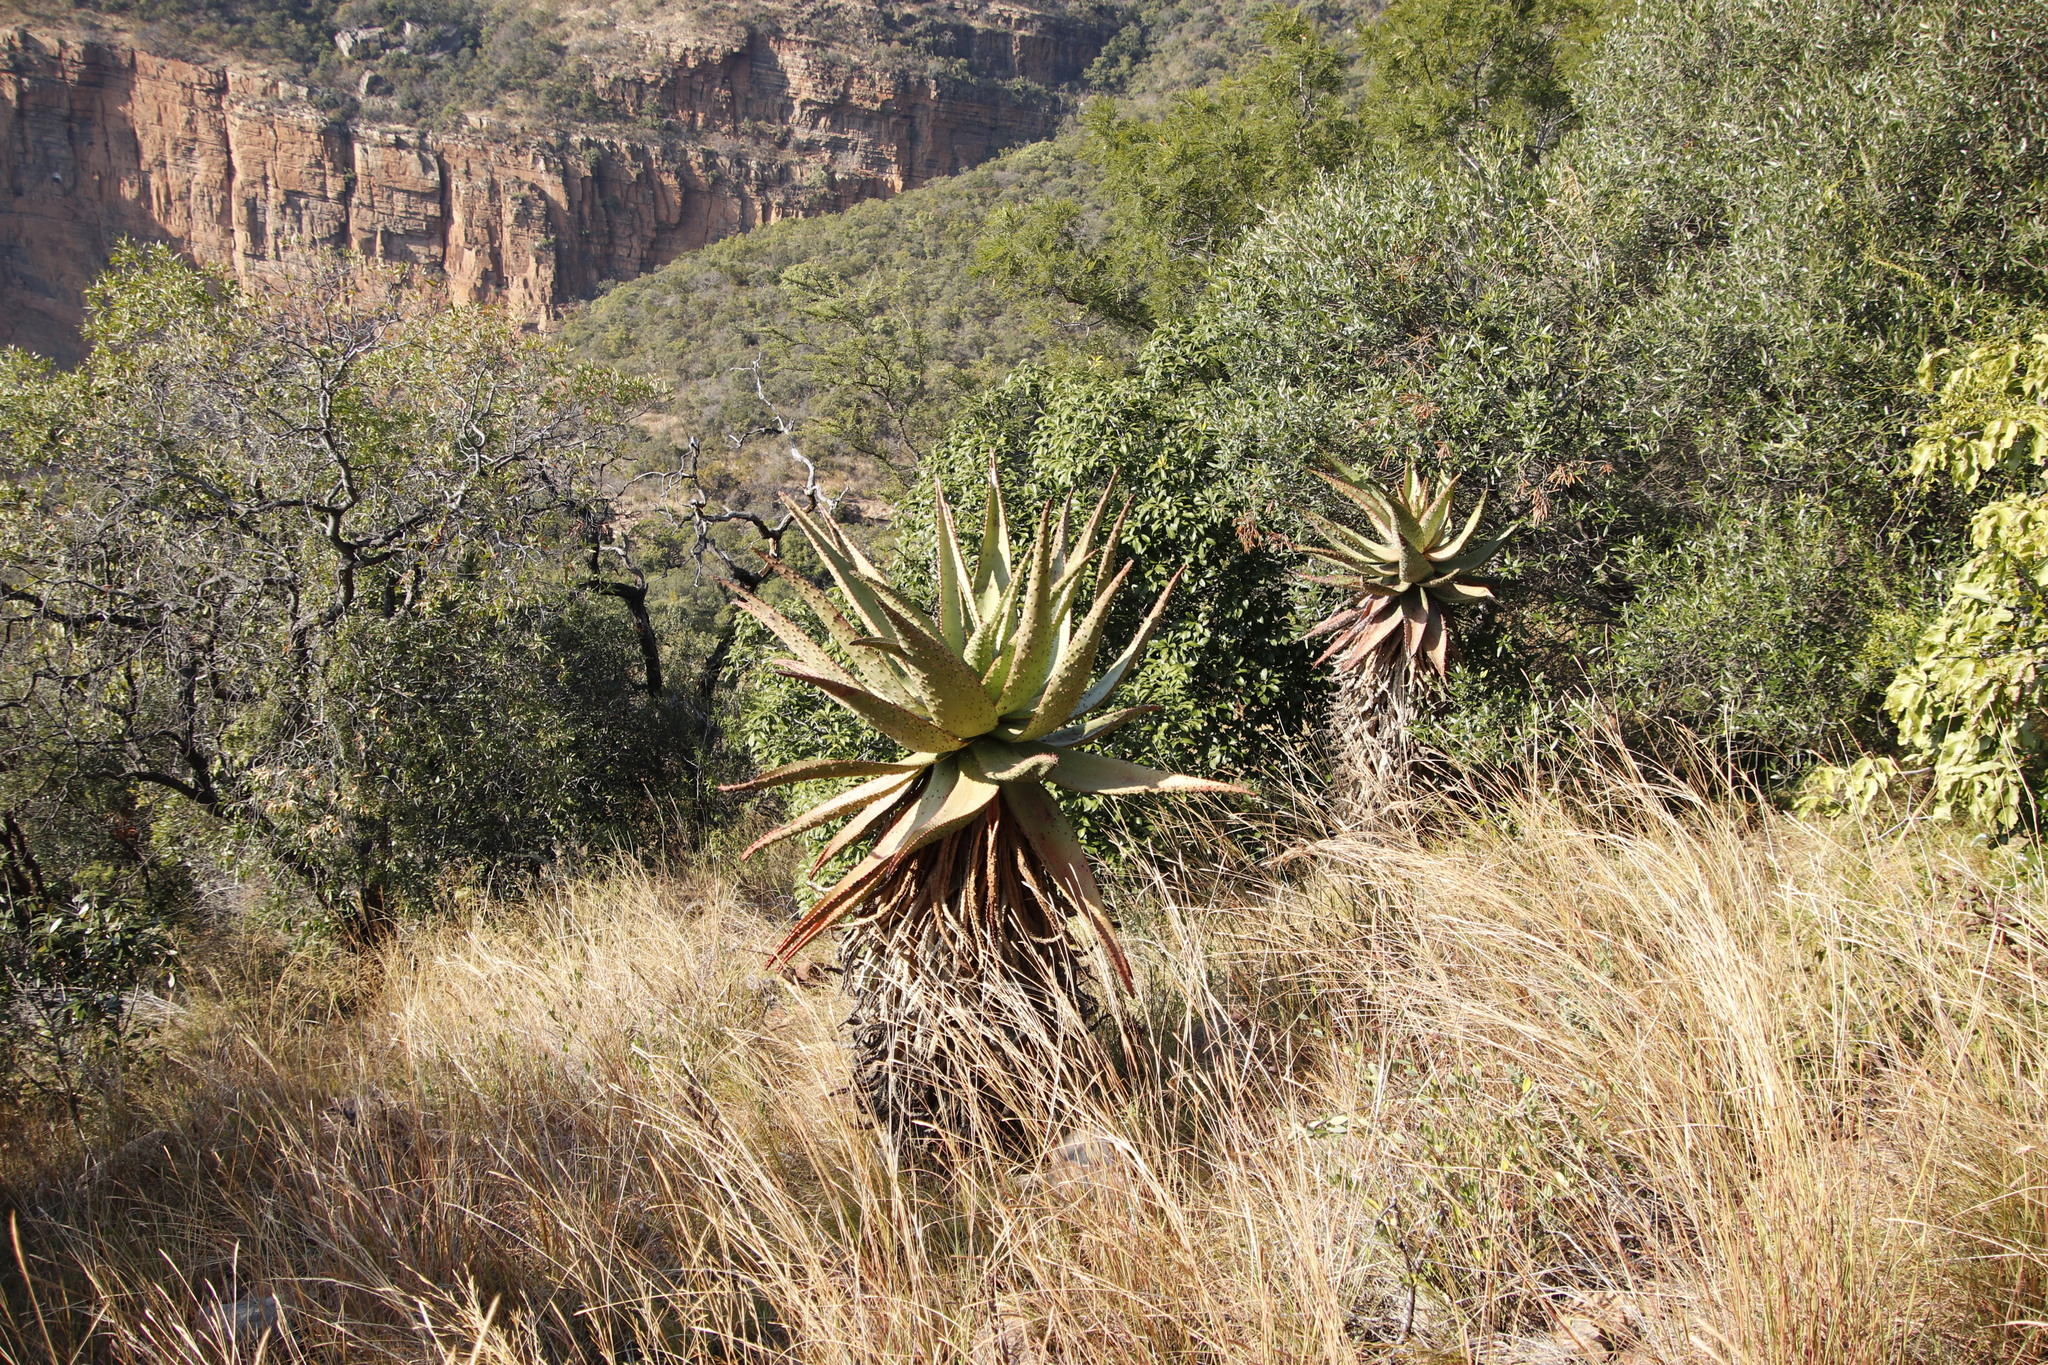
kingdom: Plantae
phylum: Tracheophyta
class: Liliopsida
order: Asparagales
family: Asphodelaceae
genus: Aloe
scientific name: Aloe marlothii
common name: Flat-flowered aloe
